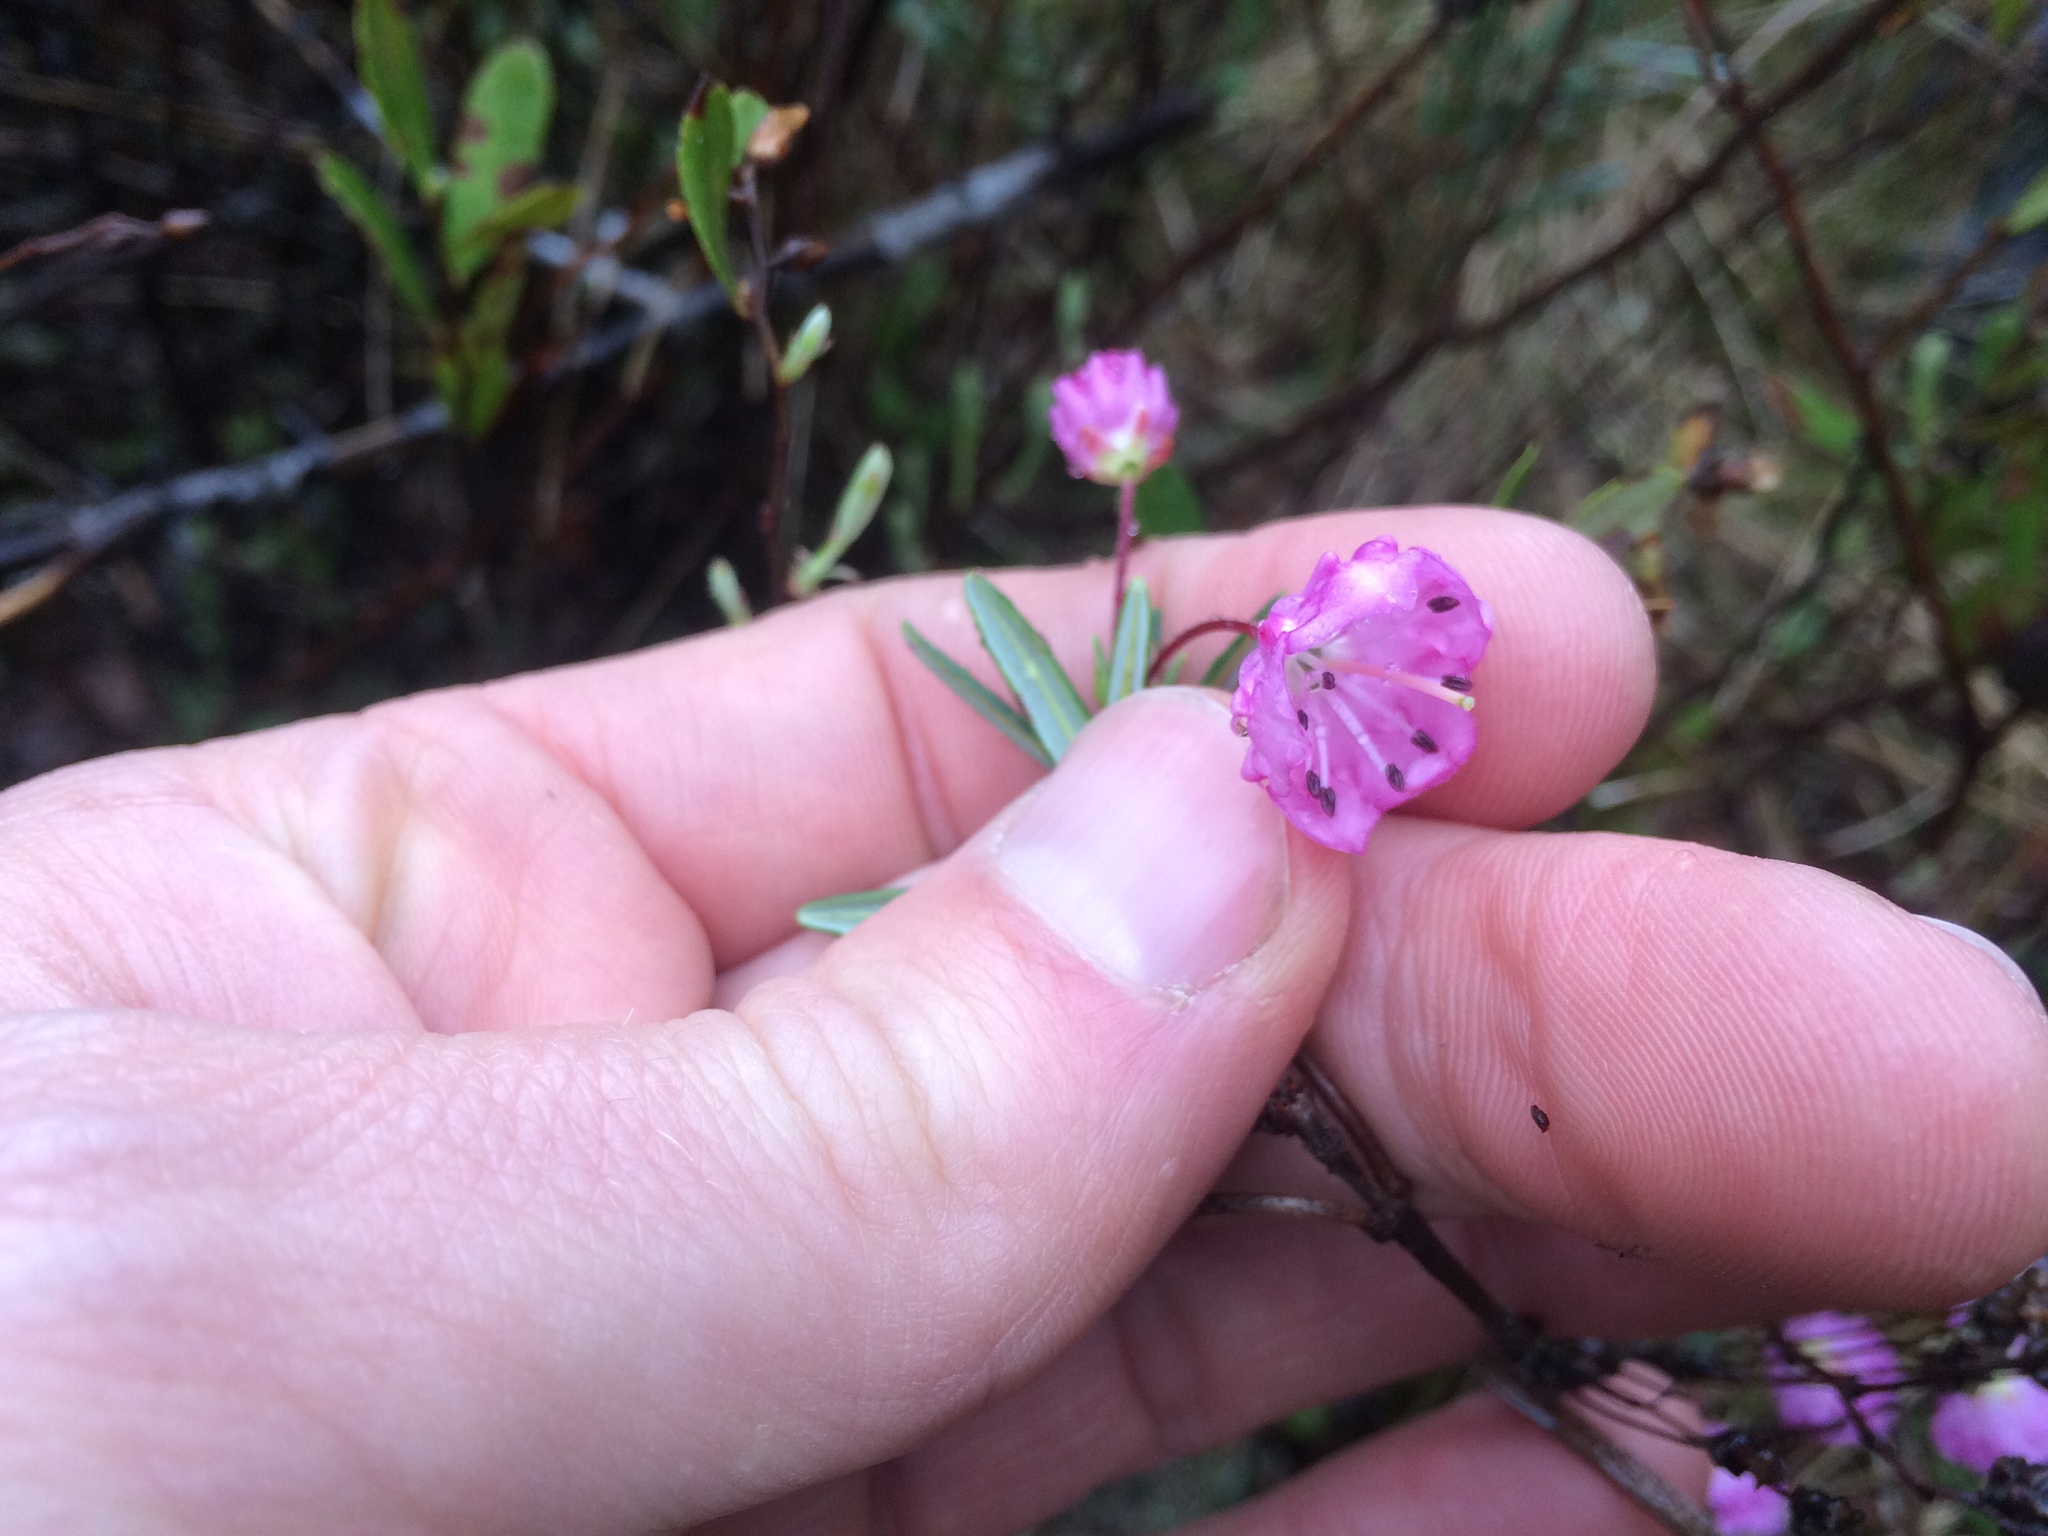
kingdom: Plantae
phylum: Tracheophyta
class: Magnoliopsida
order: Ericales
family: Ericaceae
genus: Kalmia
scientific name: Kalmia polifolia
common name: Bog-laurel
